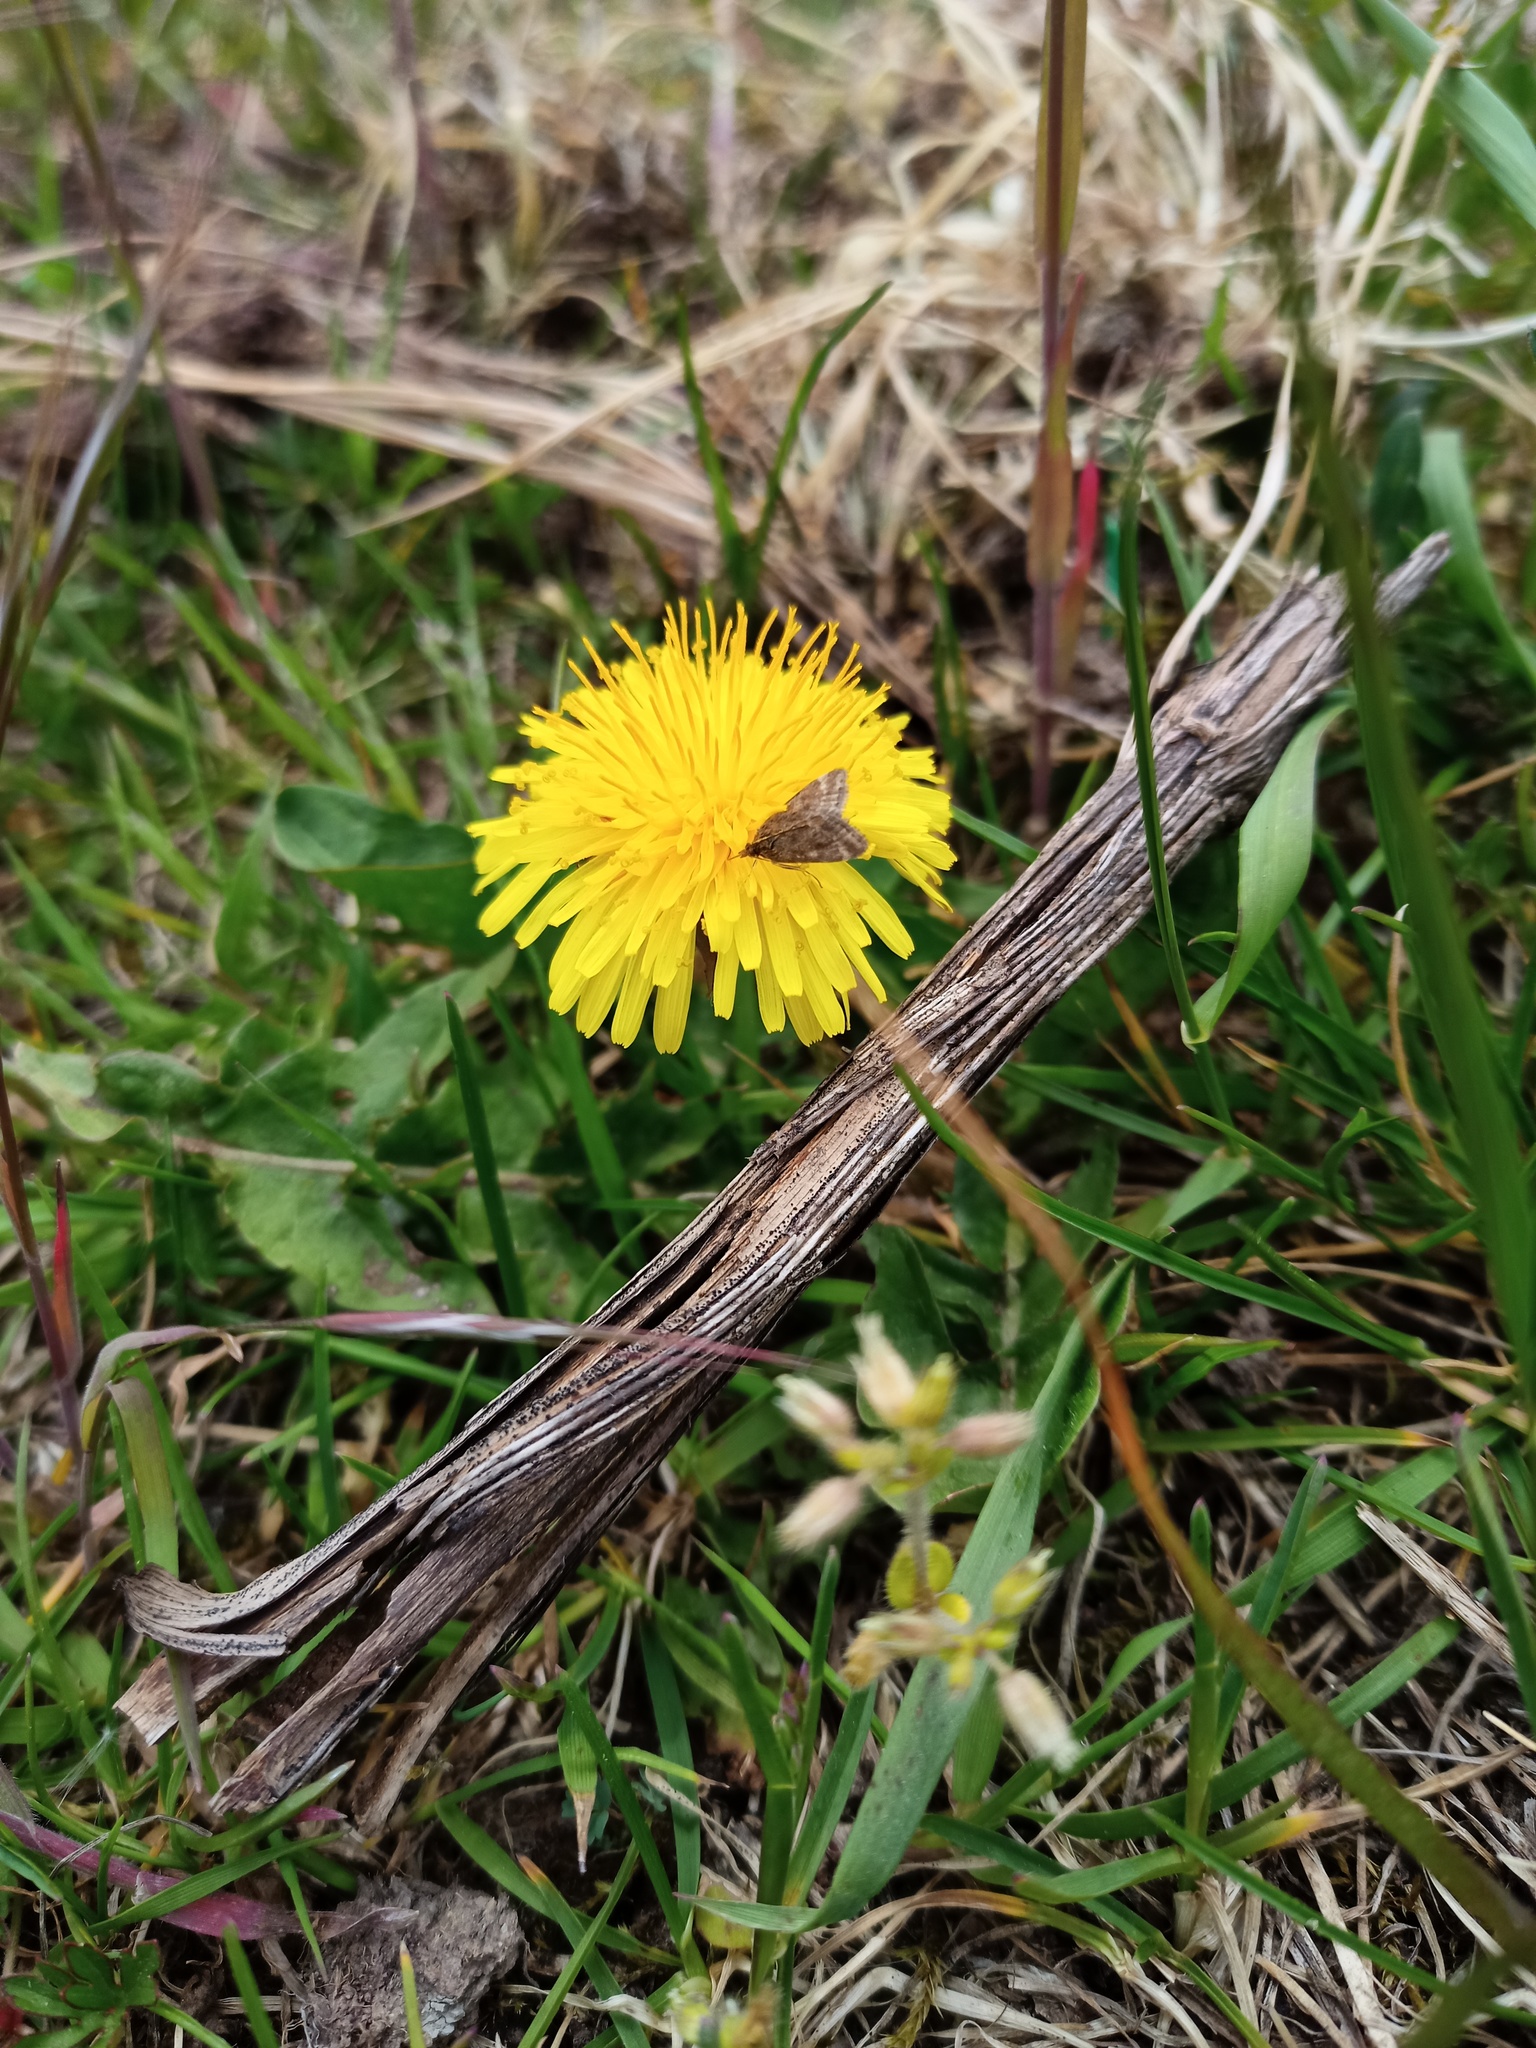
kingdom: Animalia
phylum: Arthropoda
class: Insecta
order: Lepidoptera
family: Crambidae
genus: Pyrausta
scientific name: Pyrausta despicata
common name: Straw-barred pearl
